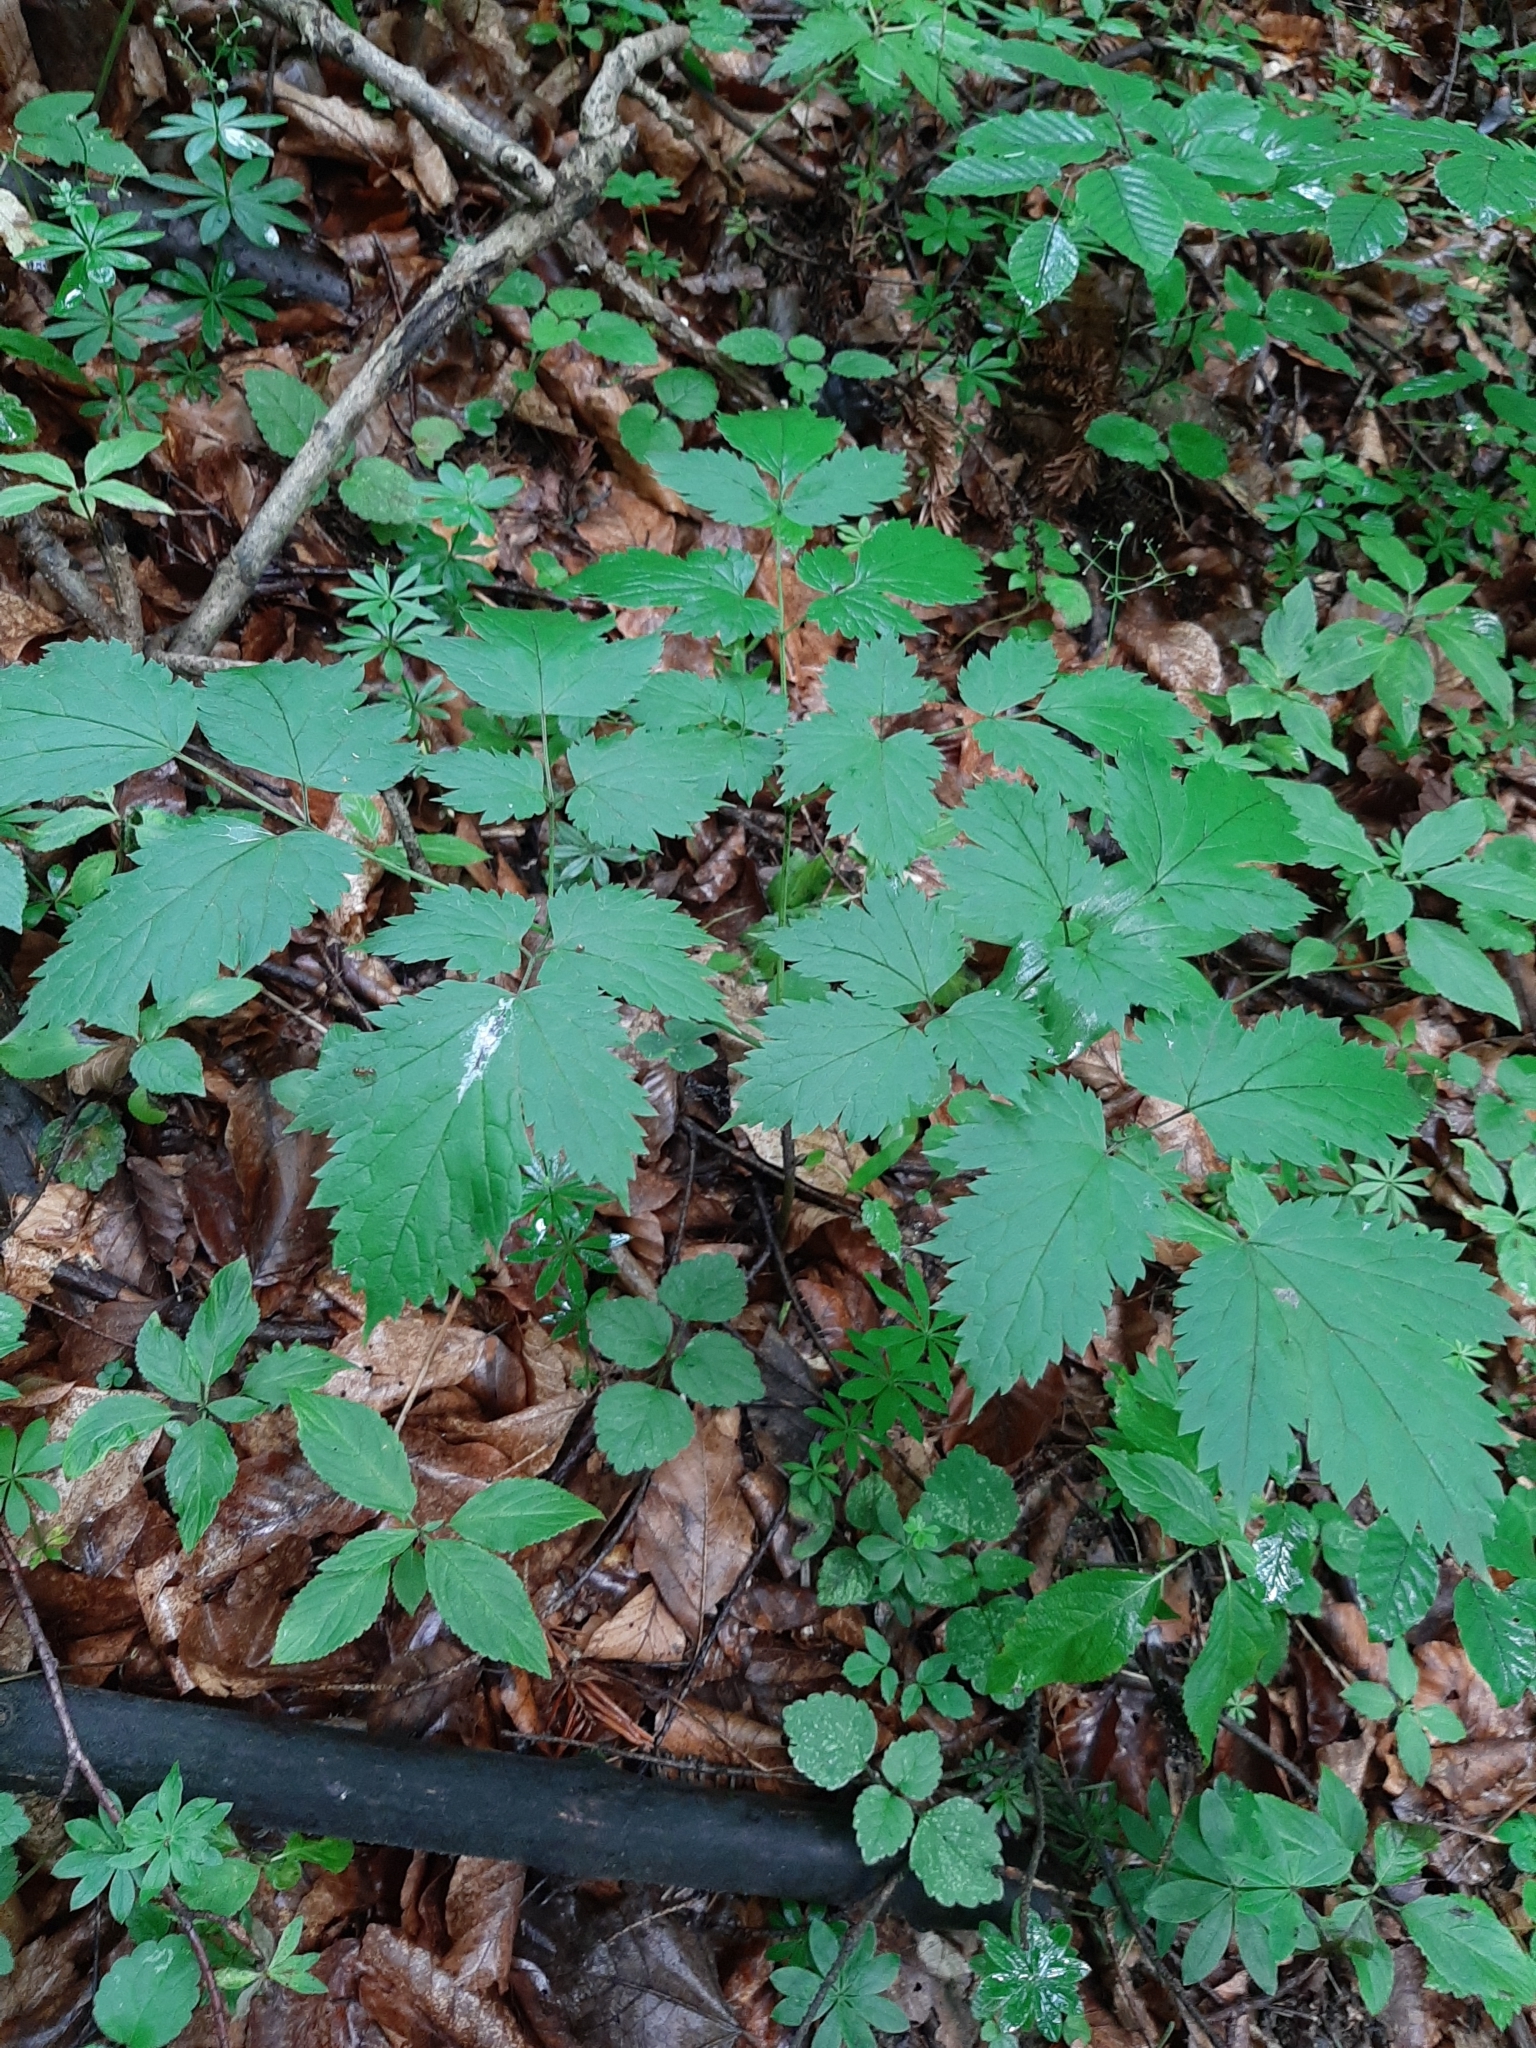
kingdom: Plantae
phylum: Tracheophyta
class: Magnoliopsida
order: Ranunculales
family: Ranunculaceae
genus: Actaea
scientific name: Actaea spicata
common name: Baneberry
